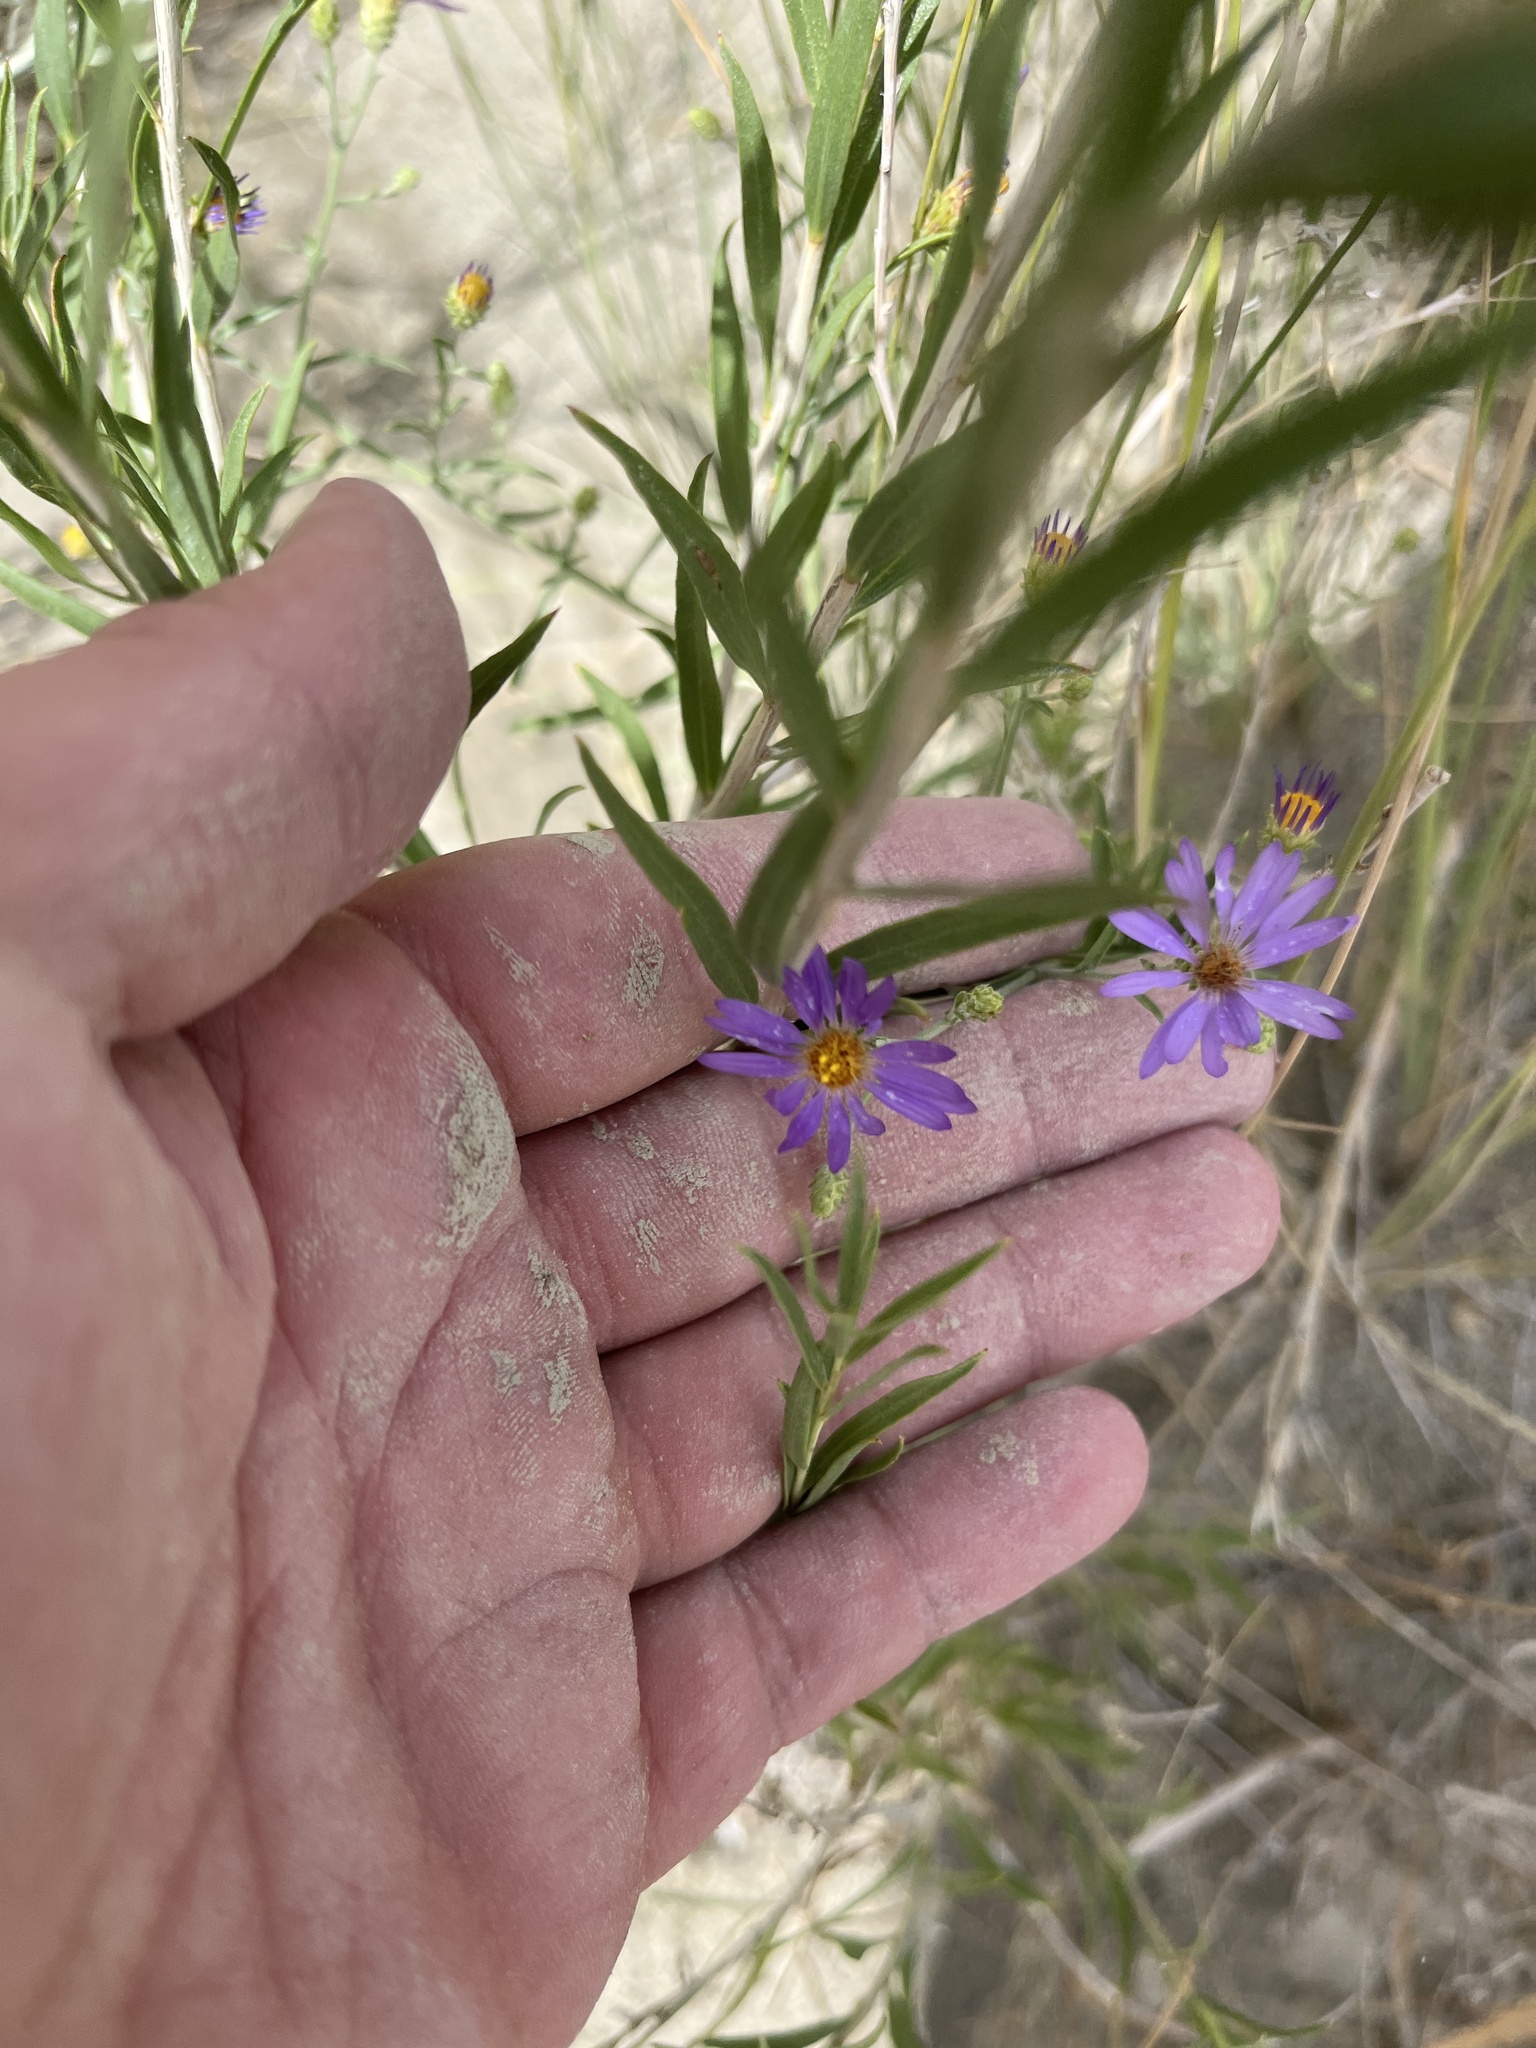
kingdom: Plantae
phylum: Tracheophyta
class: Magnoliopsida
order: Asterales
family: Asteraceae
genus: Dieteria
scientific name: Dieteria canescens
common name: Hoary-aster
